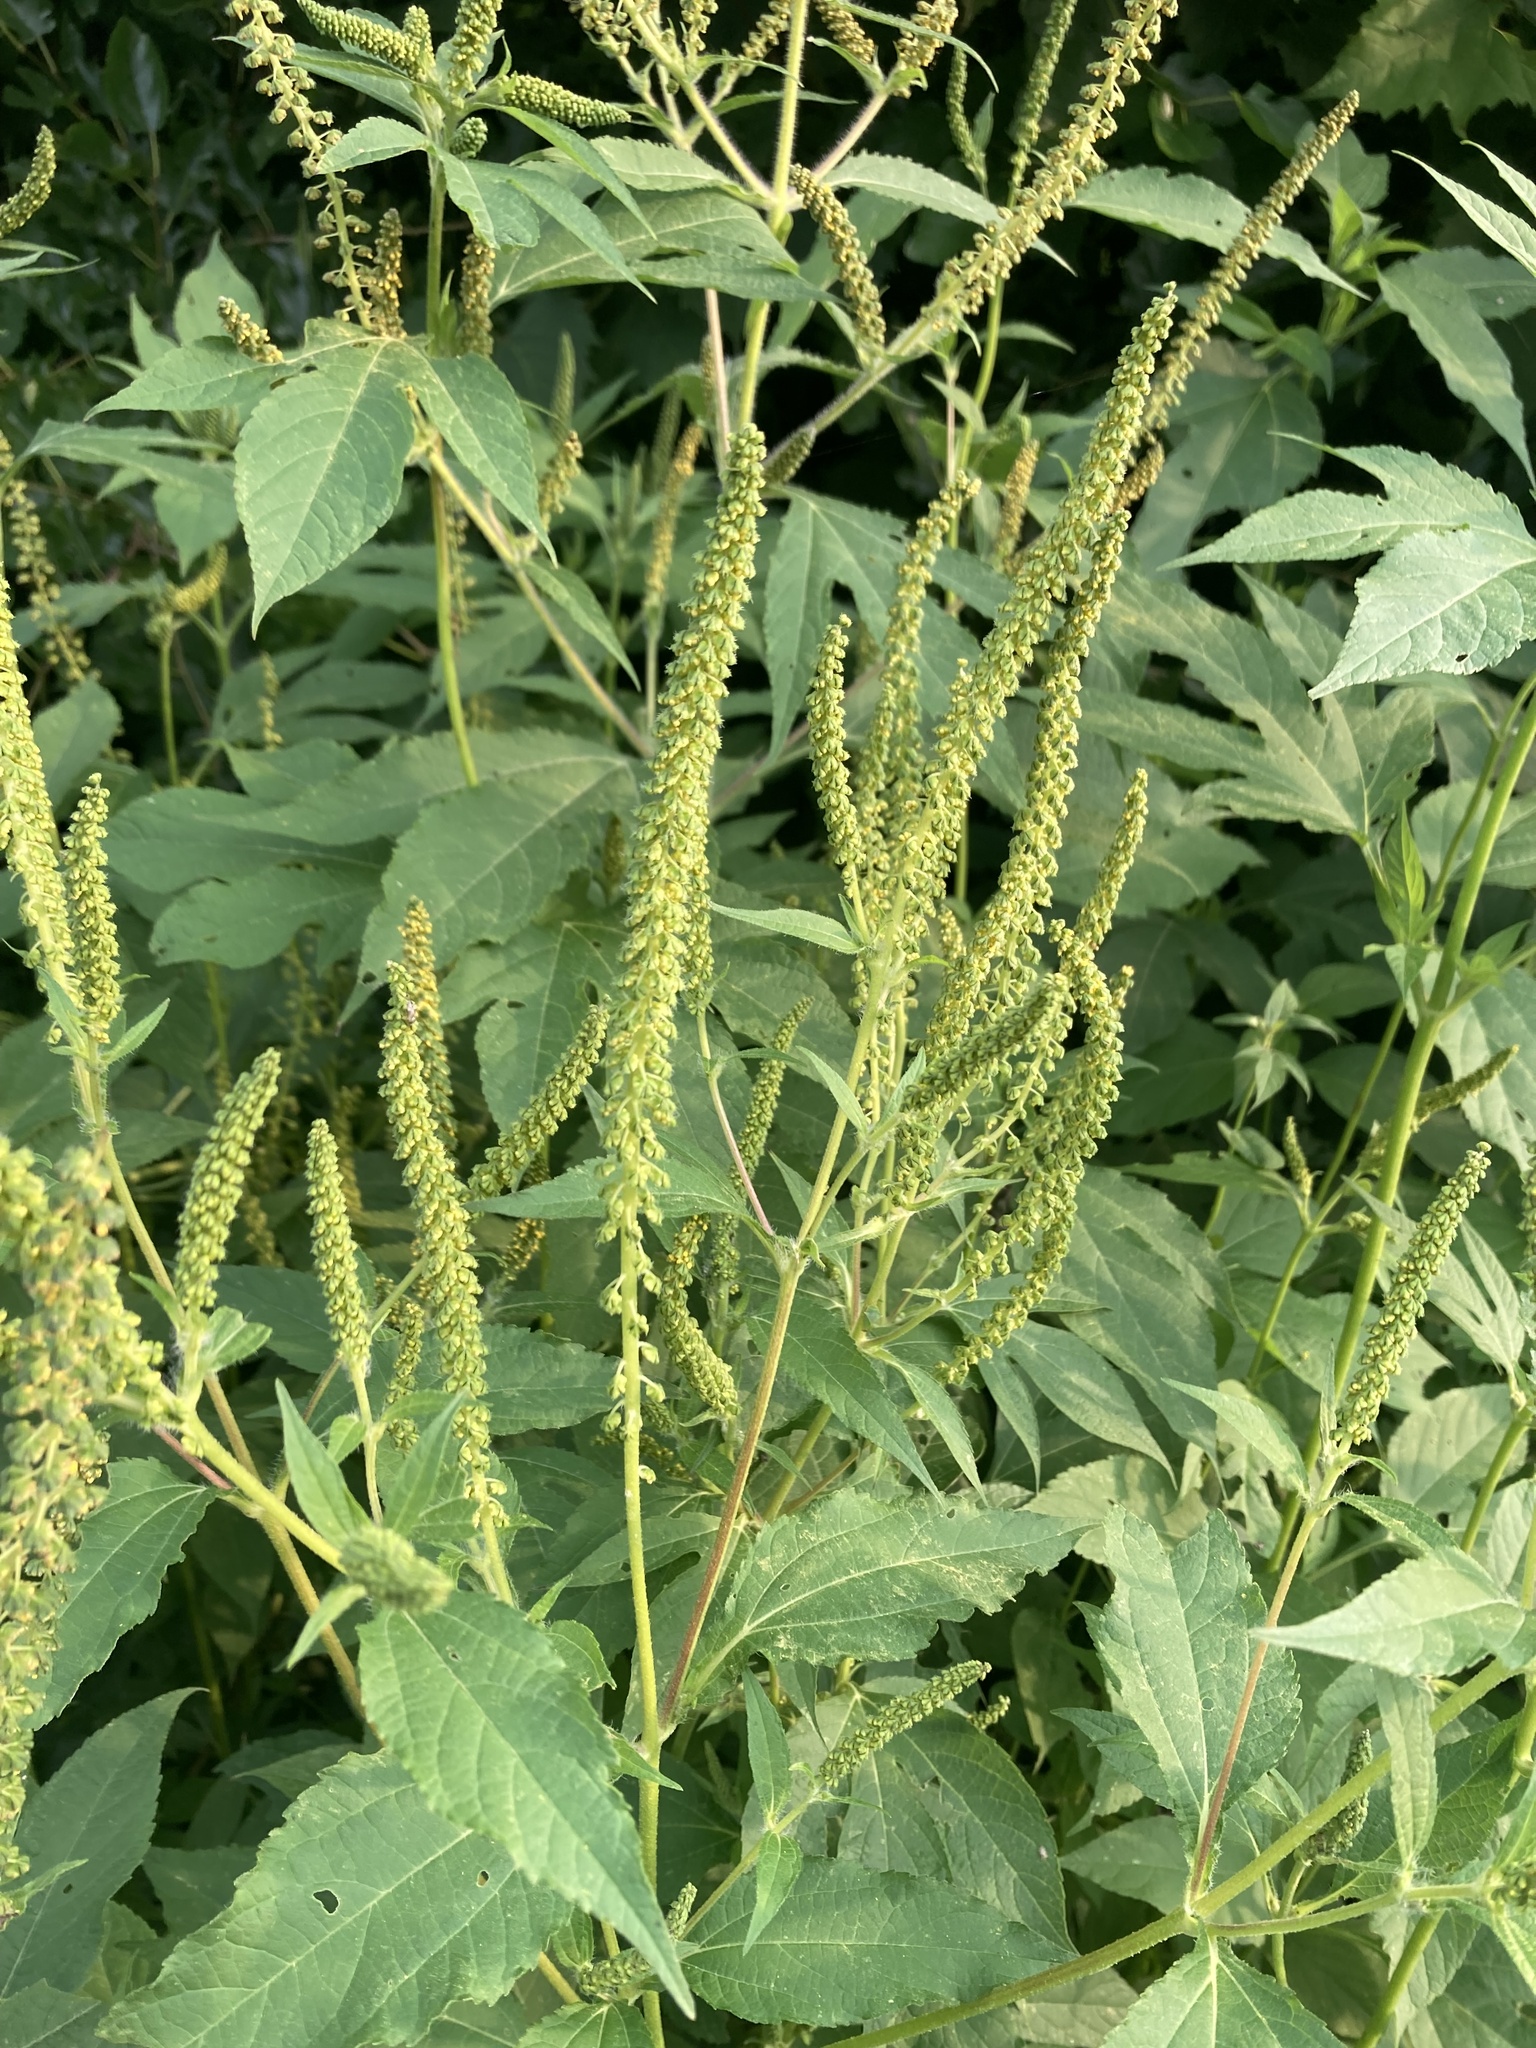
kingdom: Plantae
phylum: Tracheophyta
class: Magnoliopsida
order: Asterales
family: Asteraceae
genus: Ambrosia
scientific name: Ambrosia trifida
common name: Giant ragweed
